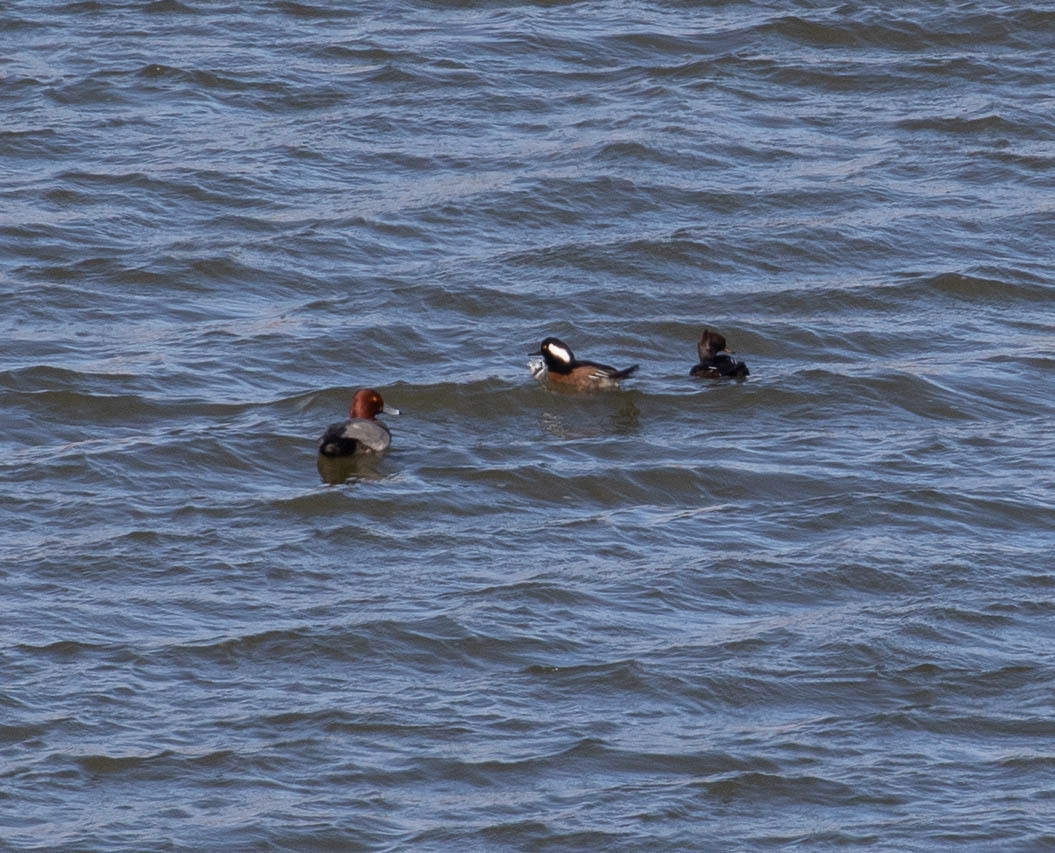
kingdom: Animalia
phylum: Chordata
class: Aves
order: Anseriformes
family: Anatidae
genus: Aythya
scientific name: Aythya americana
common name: Redhead
